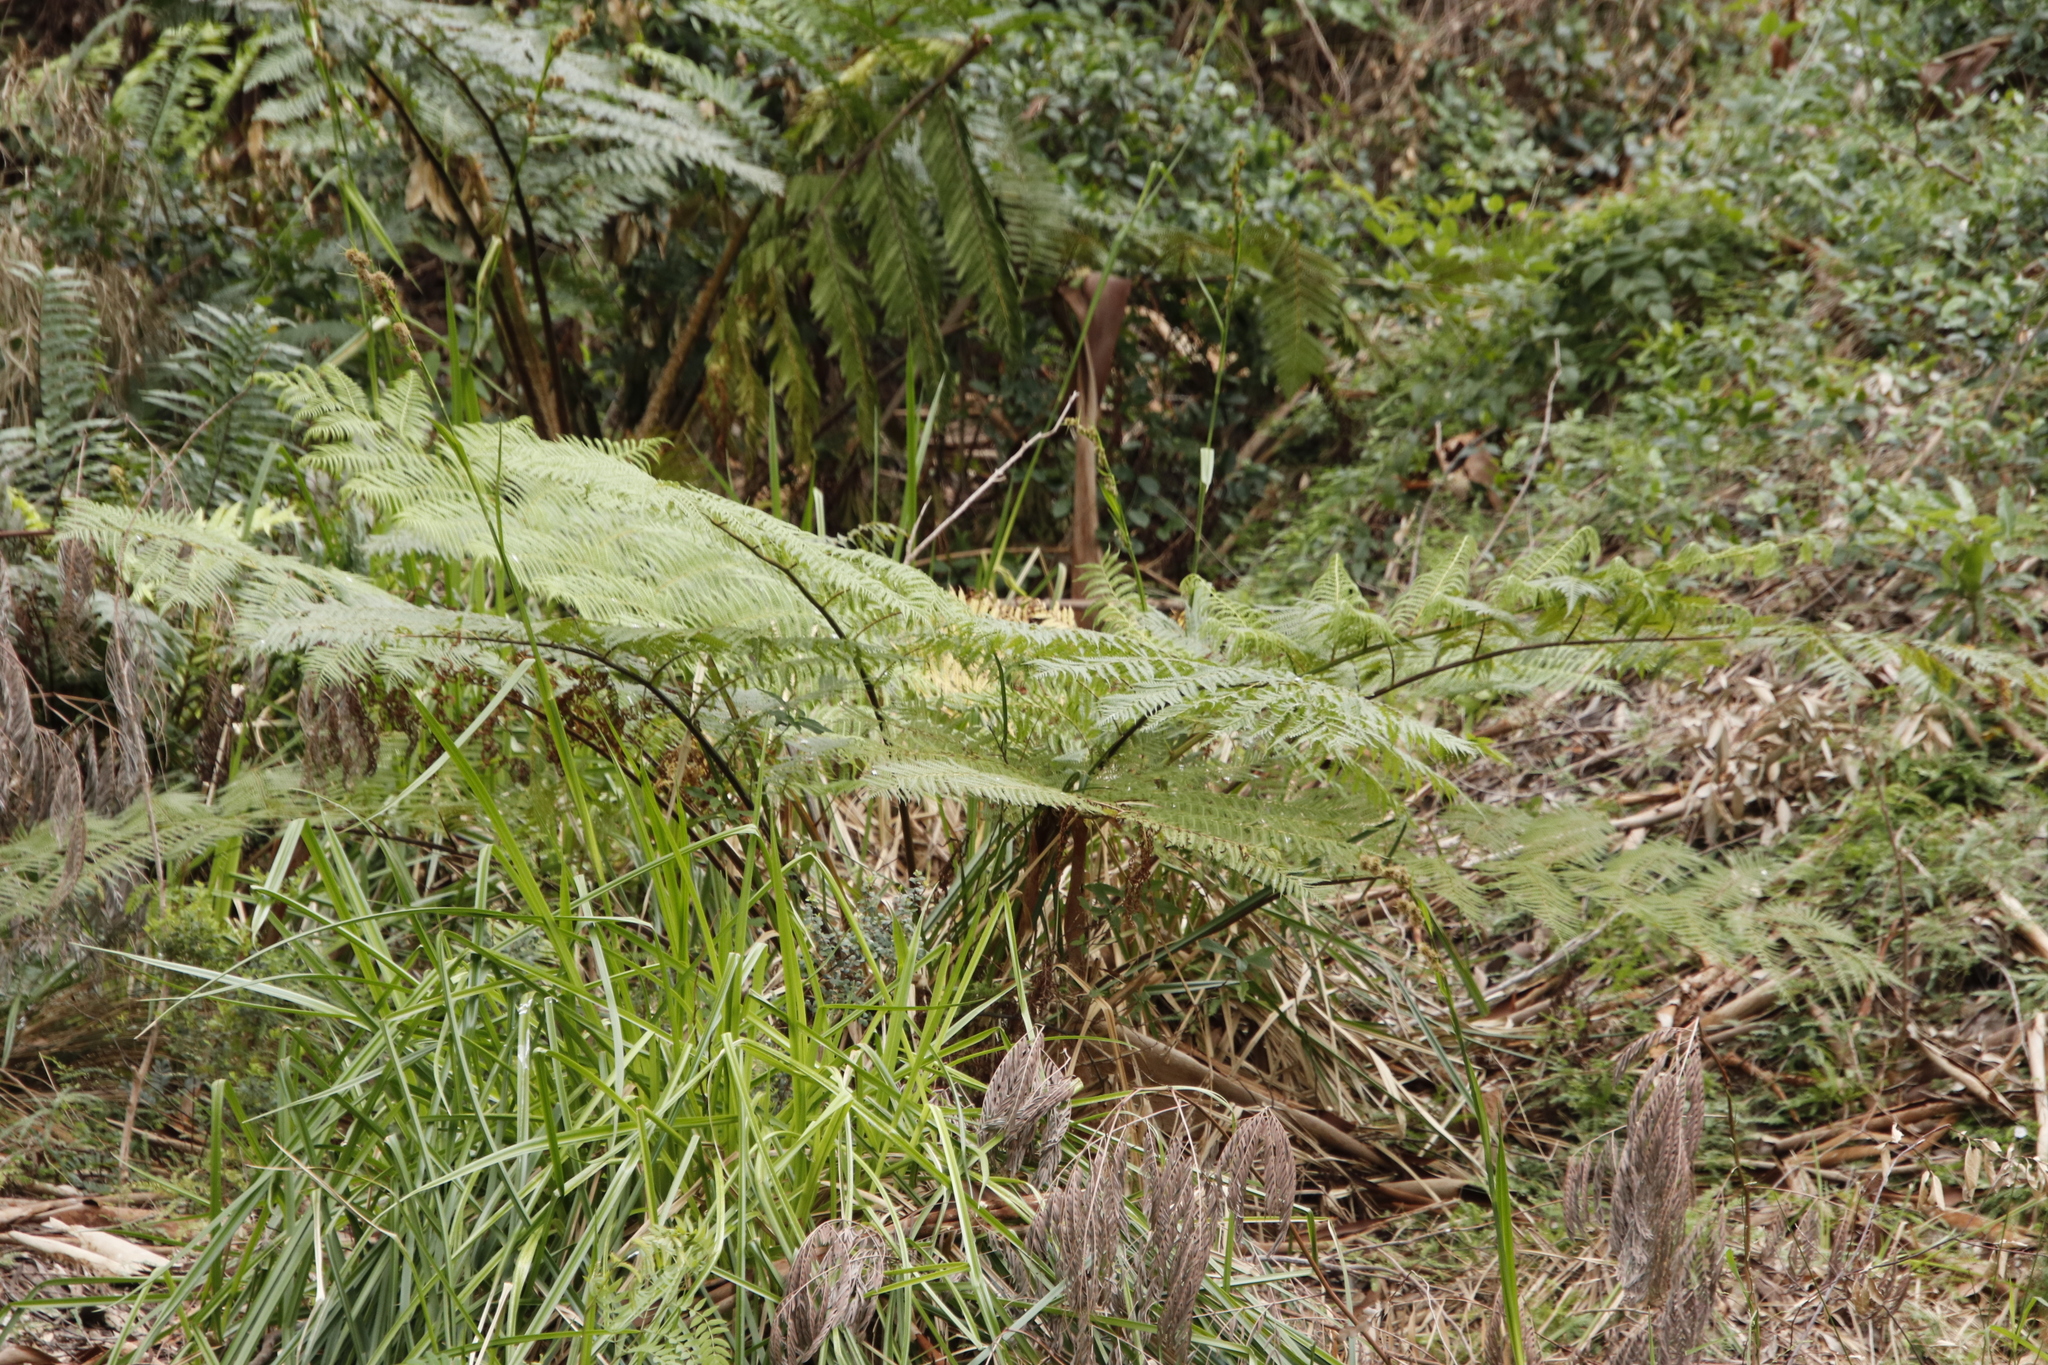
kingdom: Plantae
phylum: Tracheophyta
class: Polypodiopsida
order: Cyatheales
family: Cyatheaceae
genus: Sphaeropteris
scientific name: Sphaeropteris cooperi
